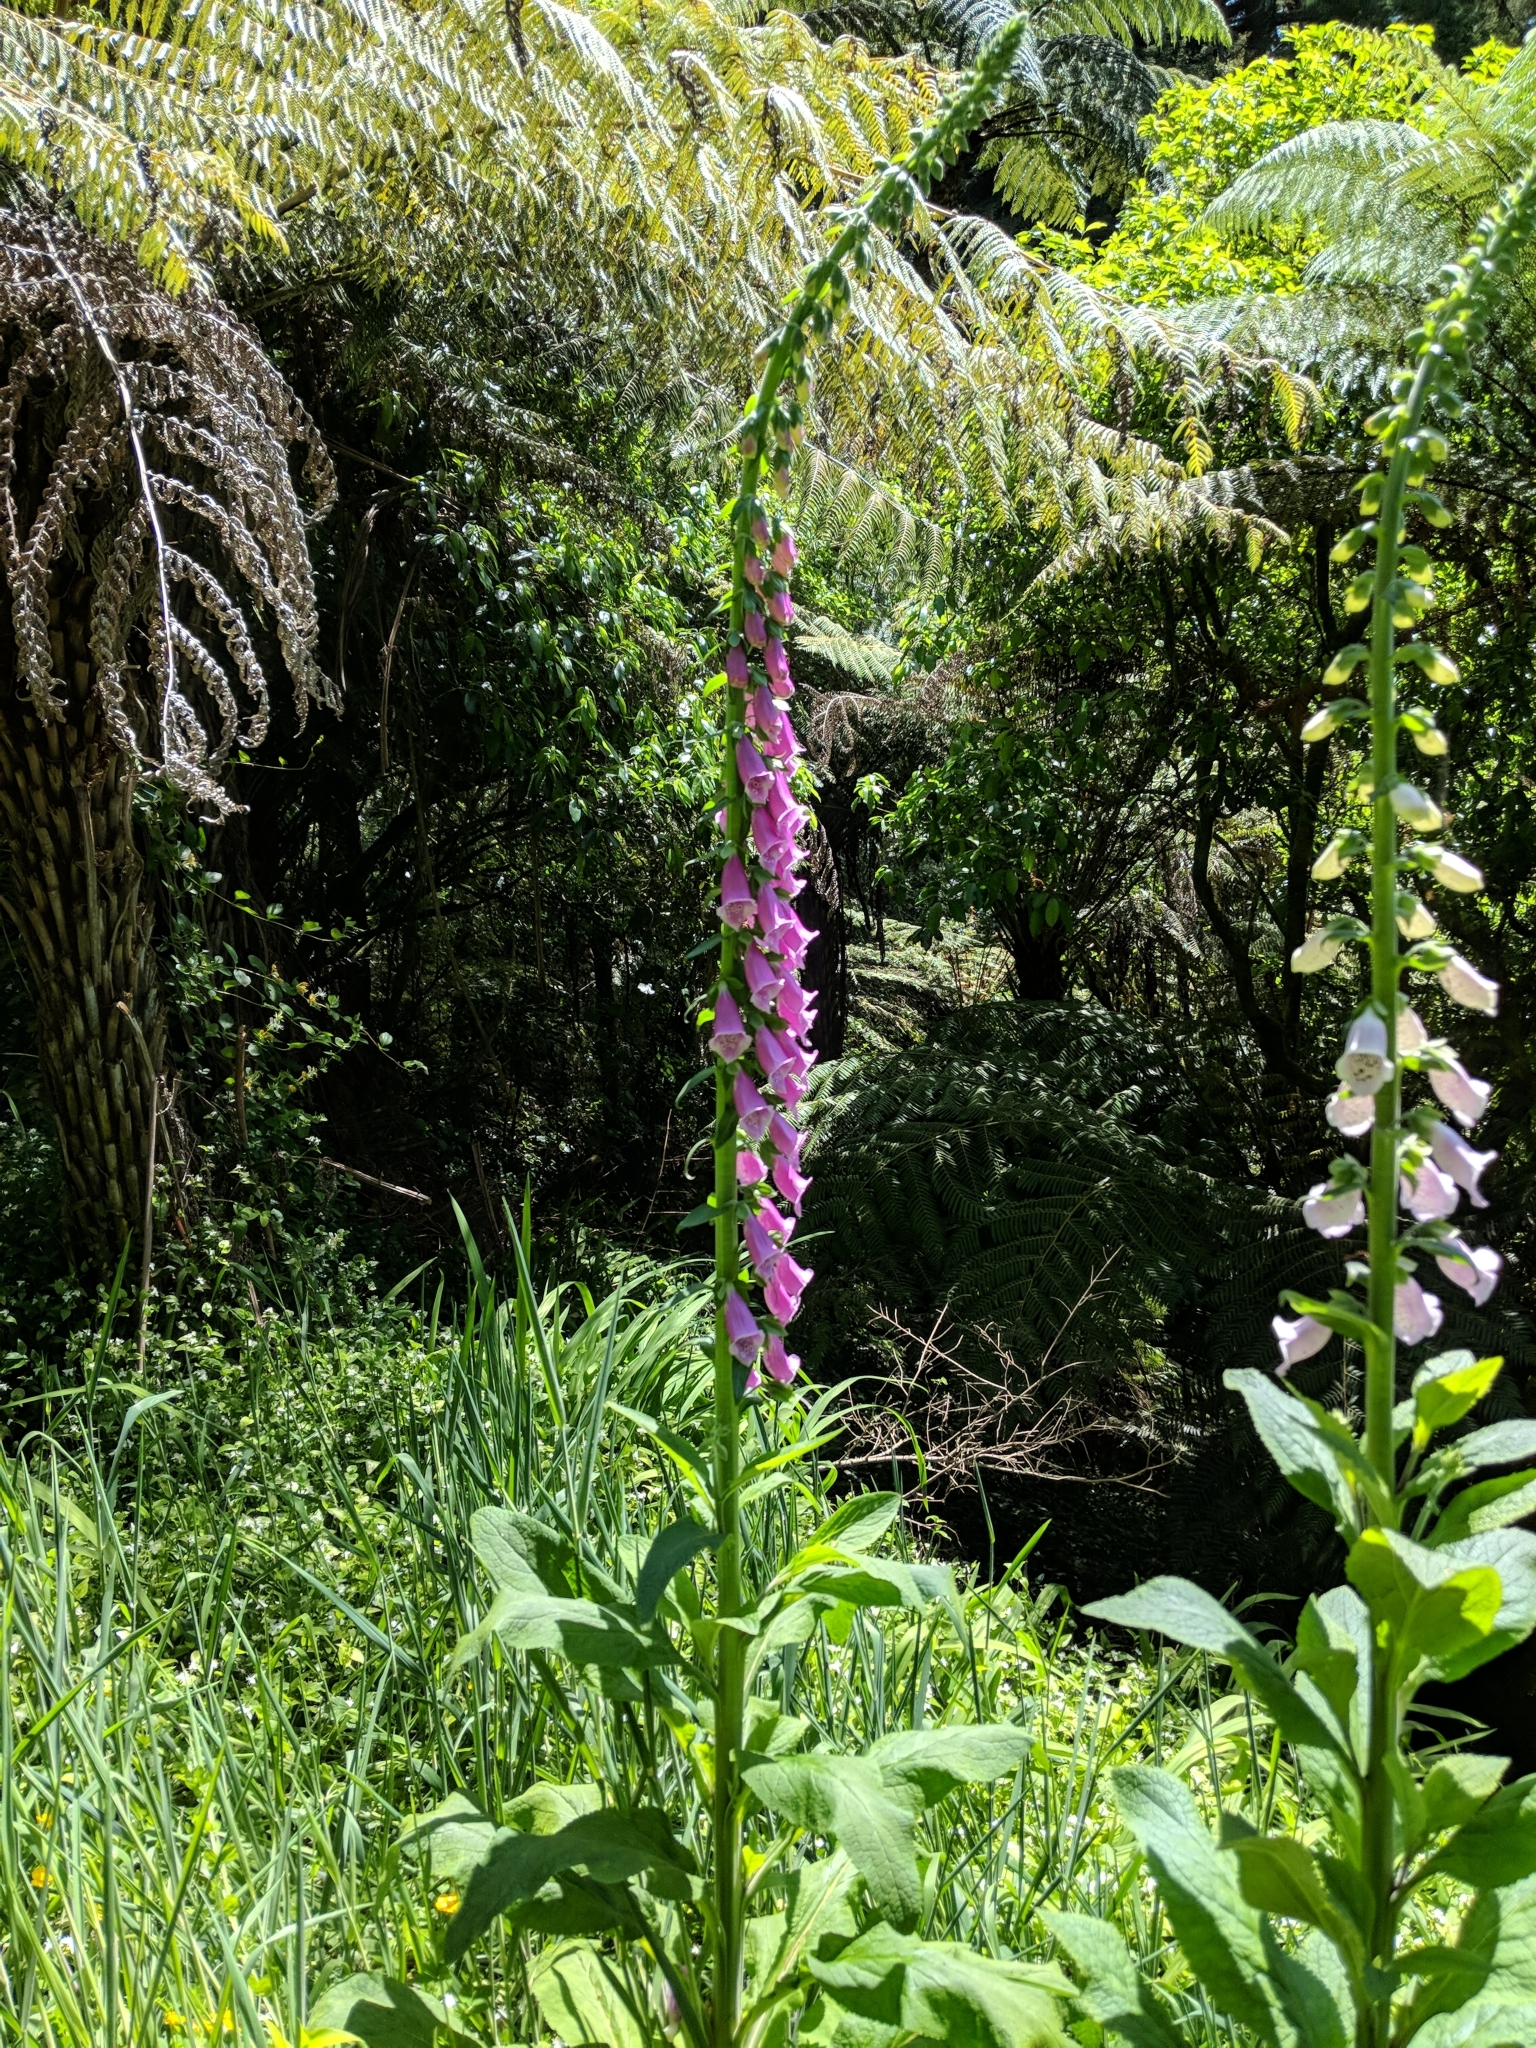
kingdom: Plantae
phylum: Tracheophyta
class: Magnoliopsida
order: Lamiales
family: Plantaginaceae
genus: Digitalis
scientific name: Digitalis purpurea
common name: Foxglove
